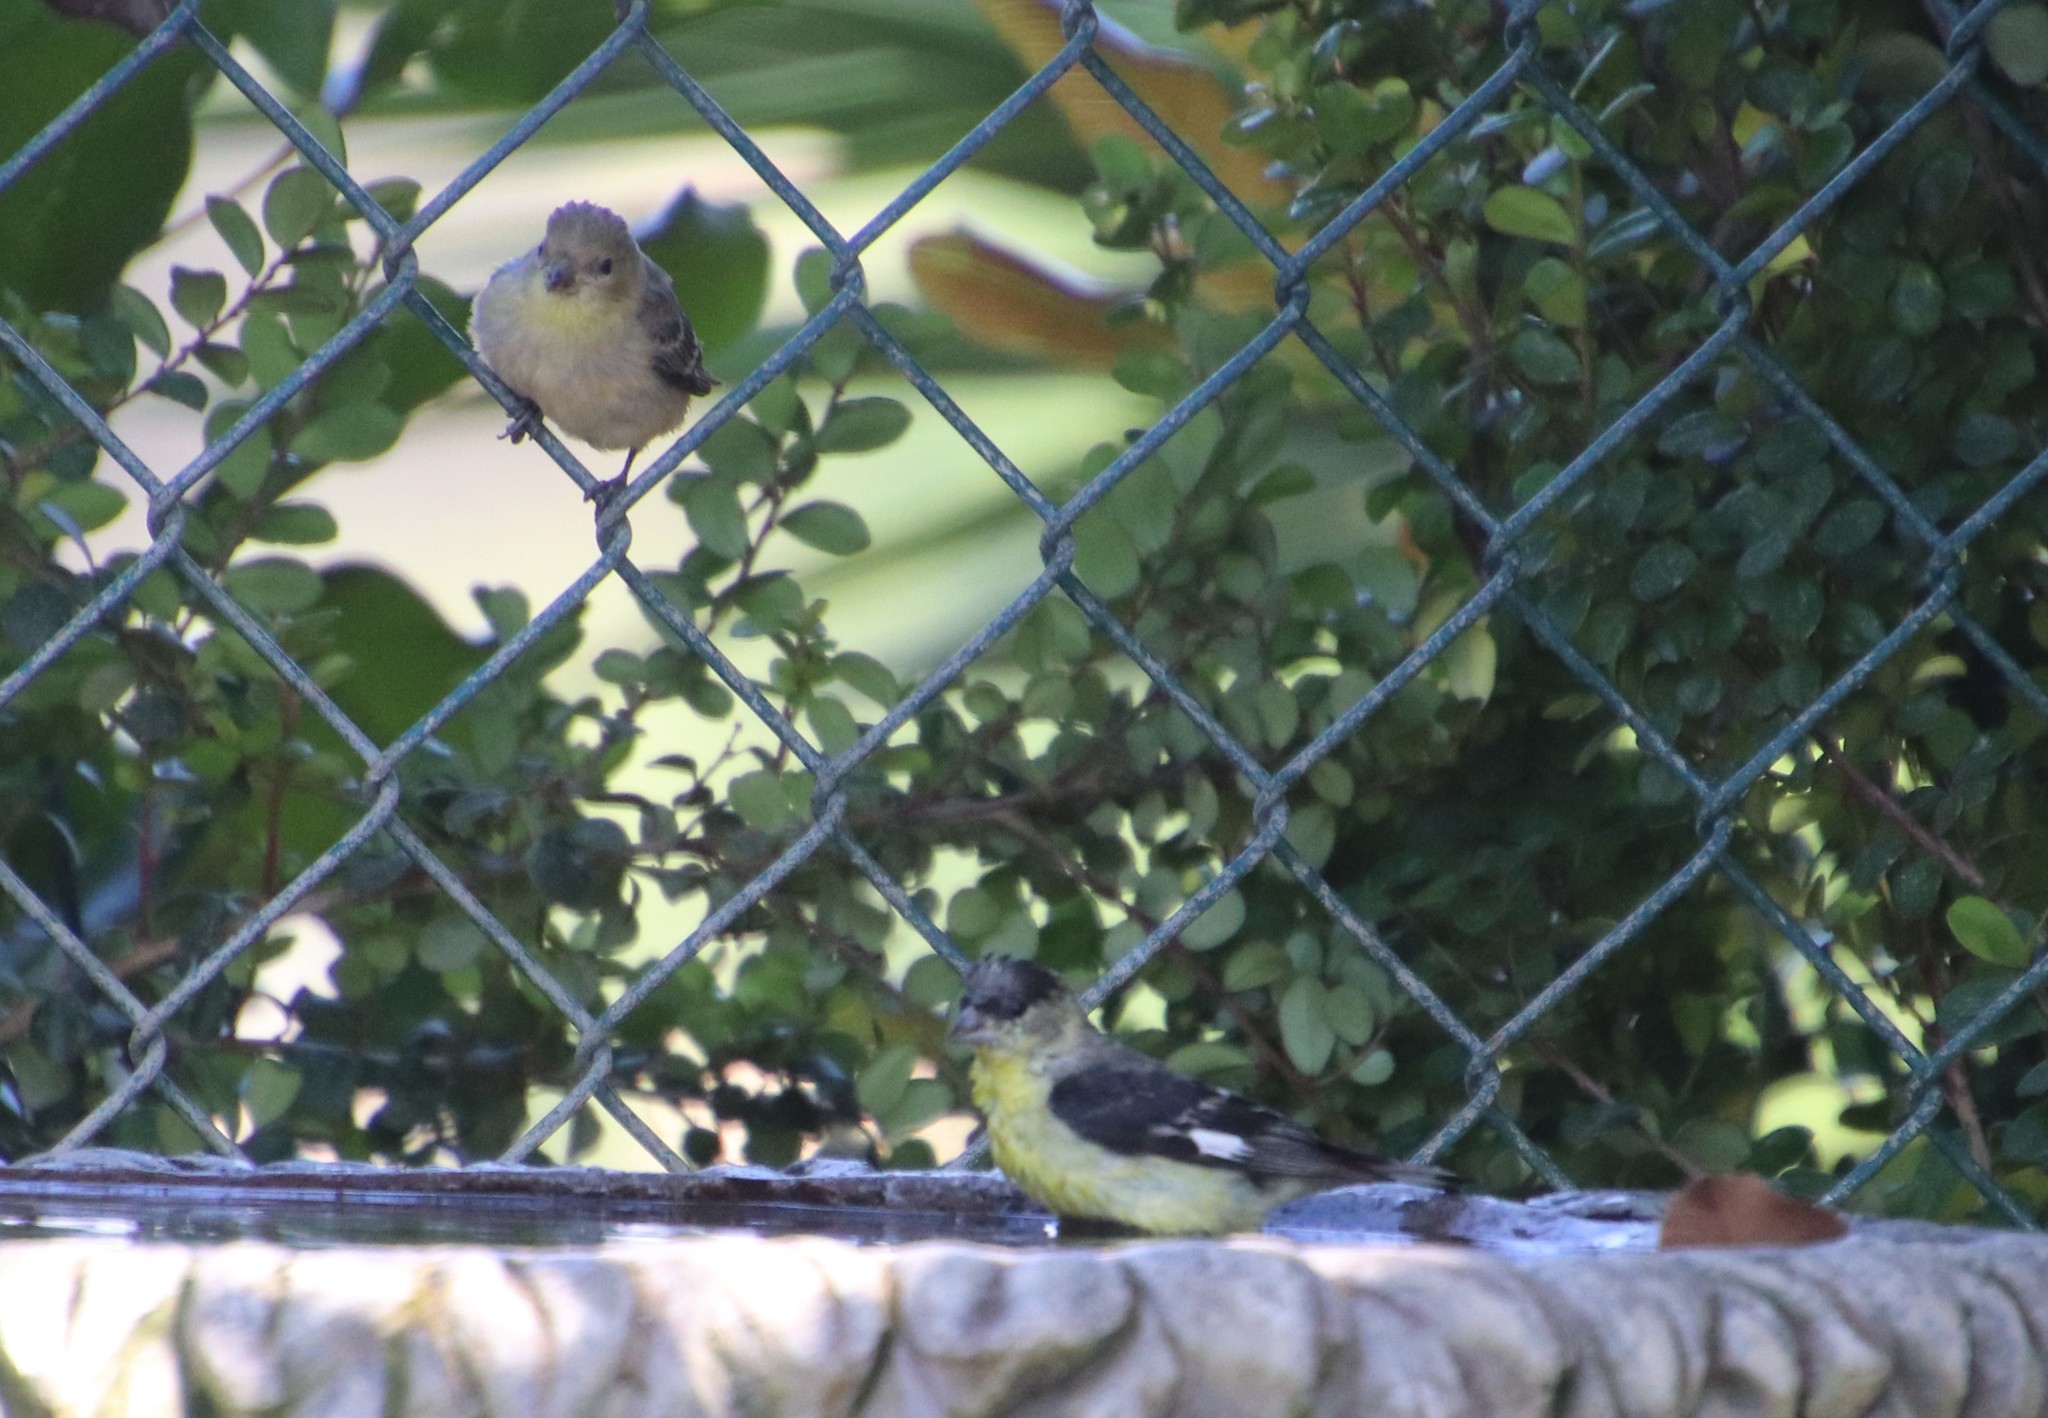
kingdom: Animalia
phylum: Chordata
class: Aves
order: Passeriformes
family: Fringillidae
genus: Spinus
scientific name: Spinus psaltria
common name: Lesser goldfinch
